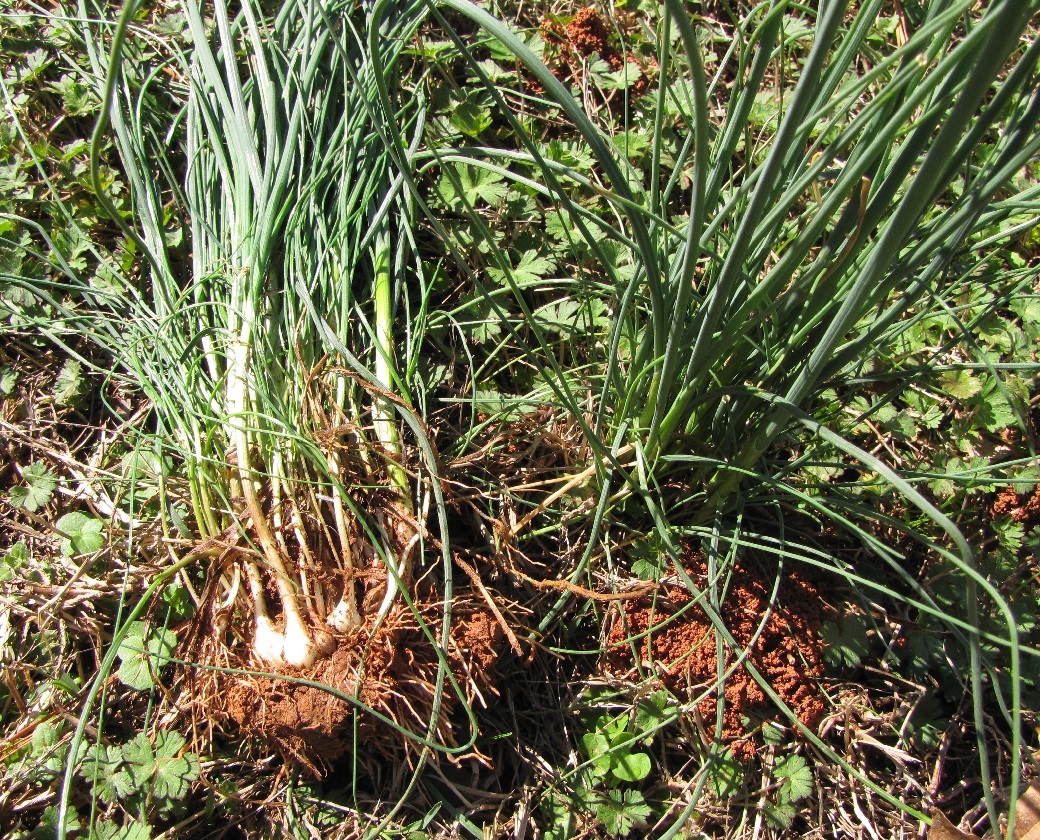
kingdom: Plantae
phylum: Tracheophyta
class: Liliopsida
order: Asparagales
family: Amaryllidaceae
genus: Allium
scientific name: Allium vineale
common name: Crow garlic
